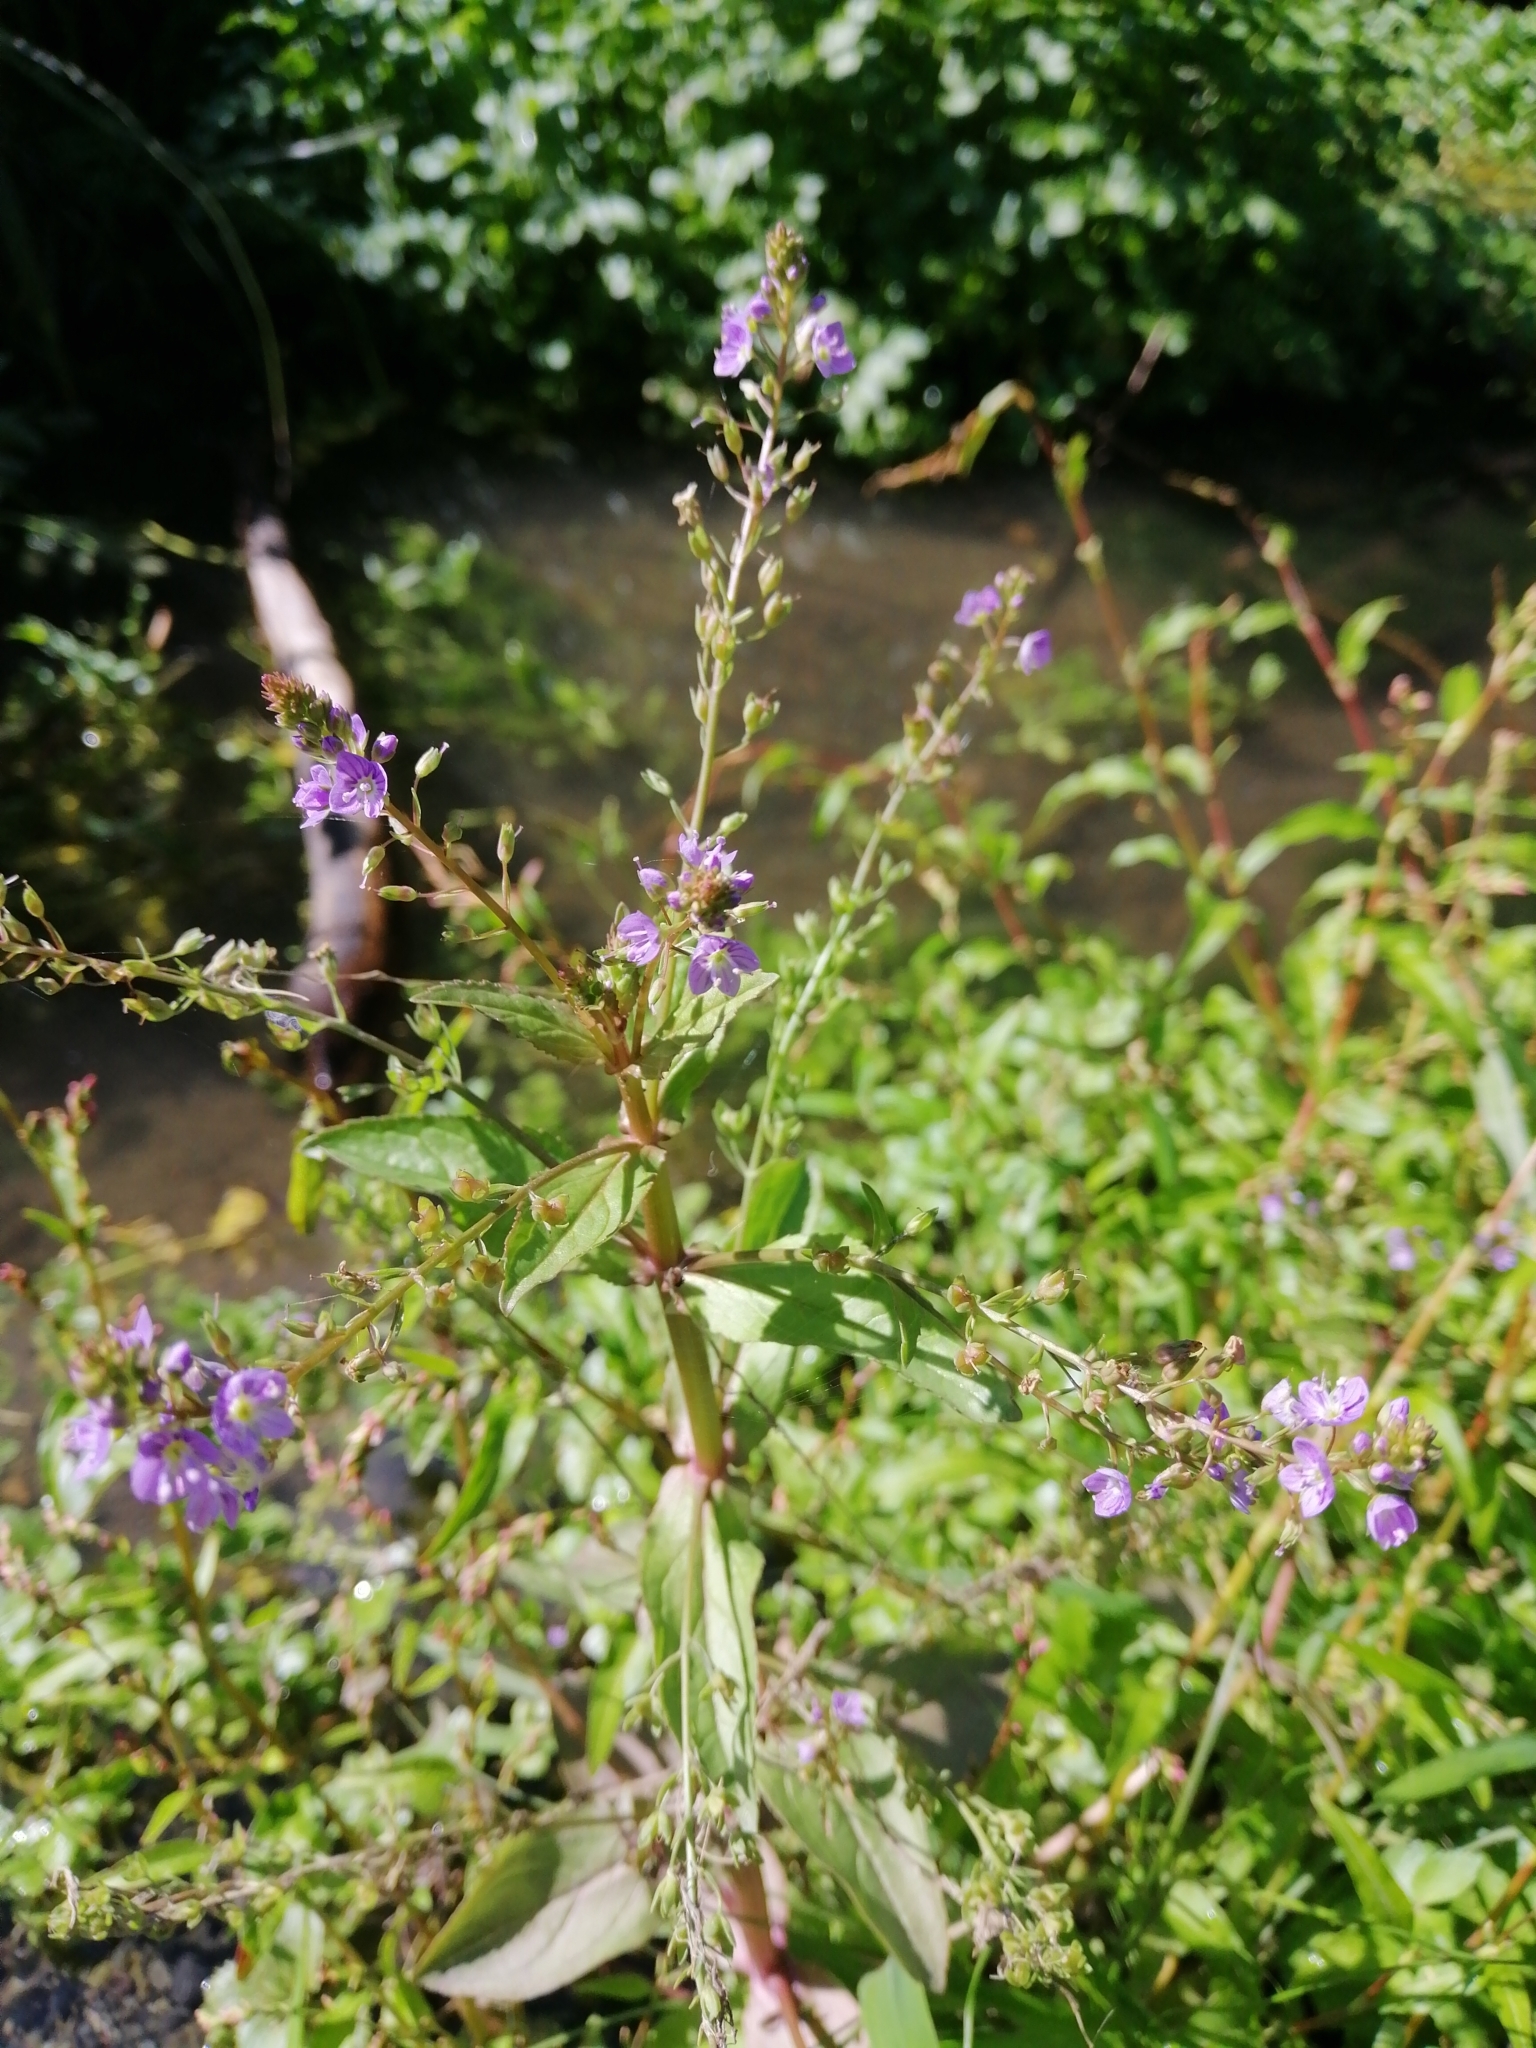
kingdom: Plantae
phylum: Tracheophyta
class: Magnoliopsida
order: Lamiales
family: Plantaginaceae
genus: Veronica
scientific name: Veronica anagallis-aquatica
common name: Water speedwell
